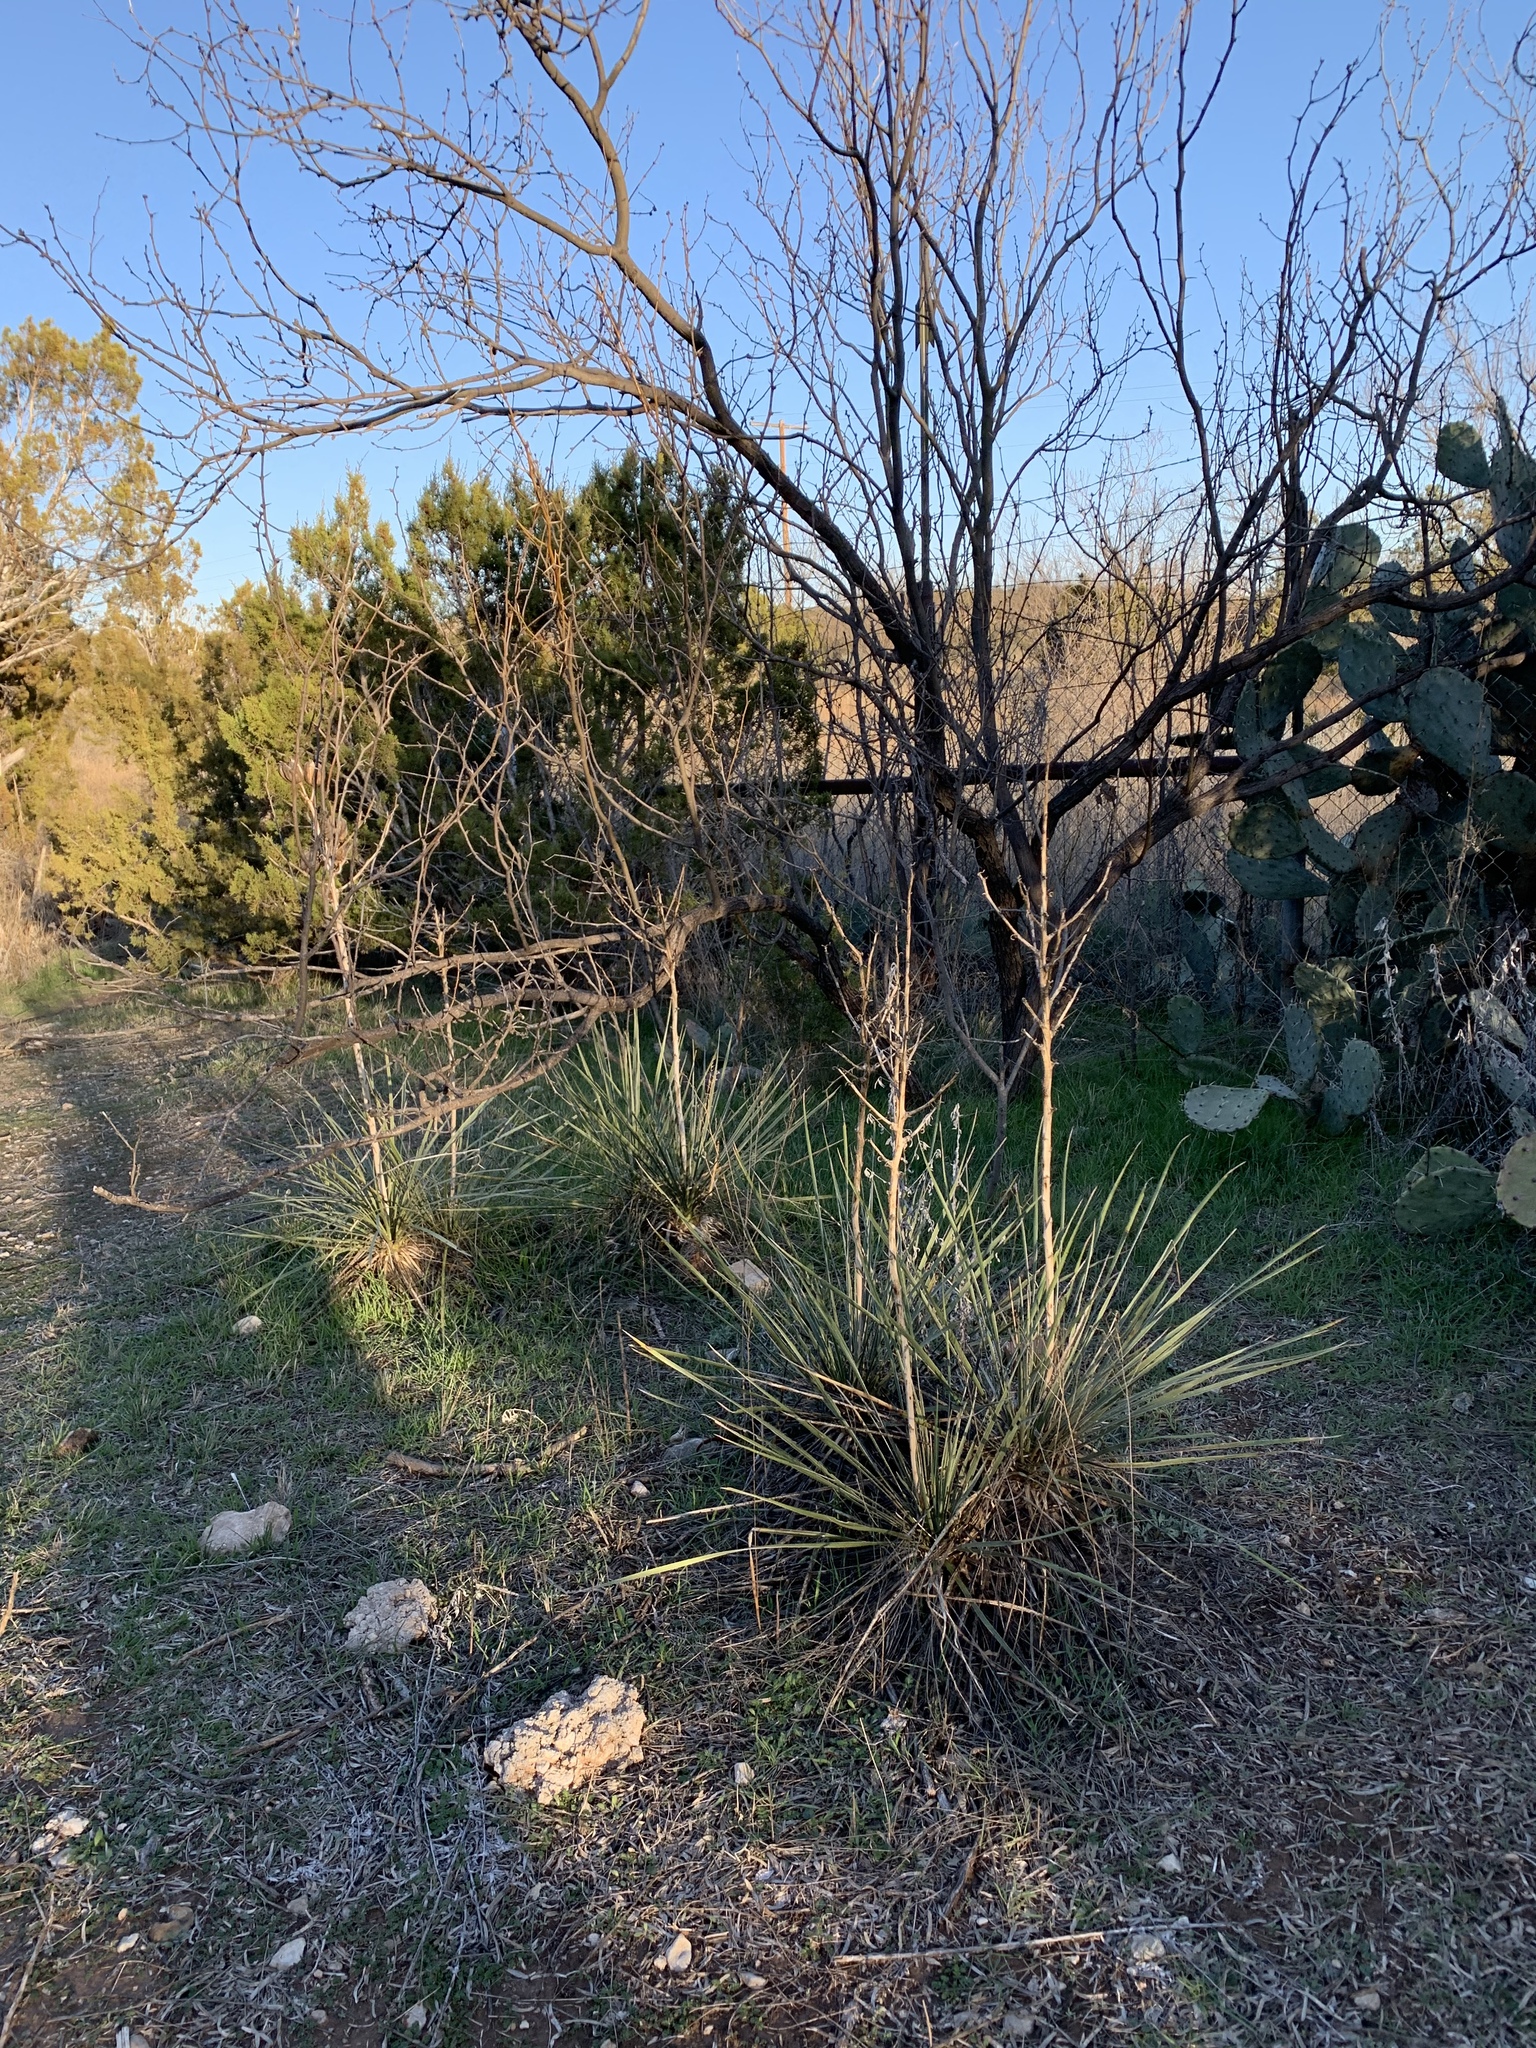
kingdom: Plantae
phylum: Tracheophyta
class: Liliopsida
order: Asparagales
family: Asparagaceae
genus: Yucca
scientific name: Yucca campestris
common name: Plains yucca
